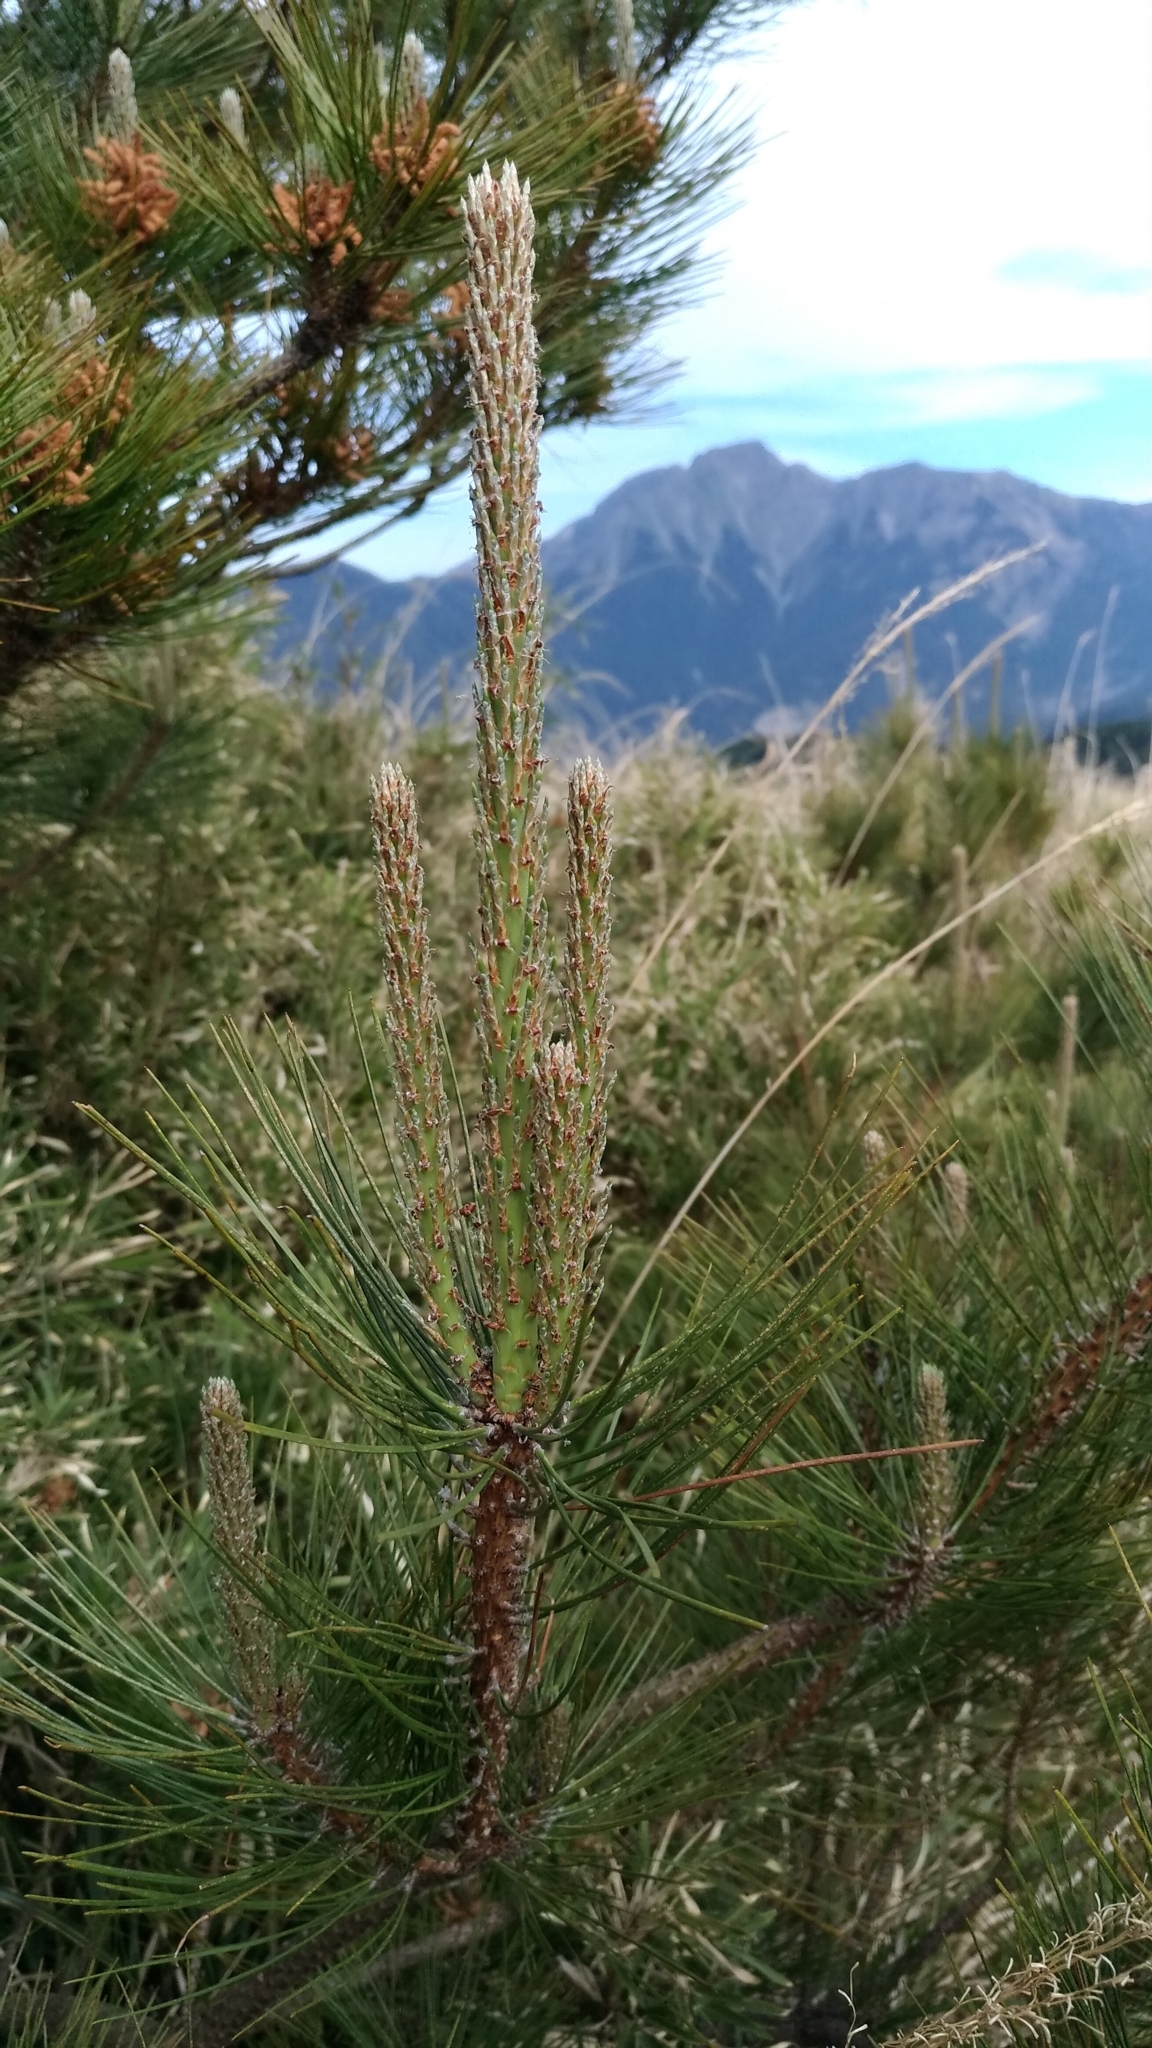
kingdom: Plantae
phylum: Tracheophyta
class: Pinopsida
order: Pinales
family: Pinaceae
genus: Pinus
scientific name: Pinus taiwanensis
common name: Formosa pine
